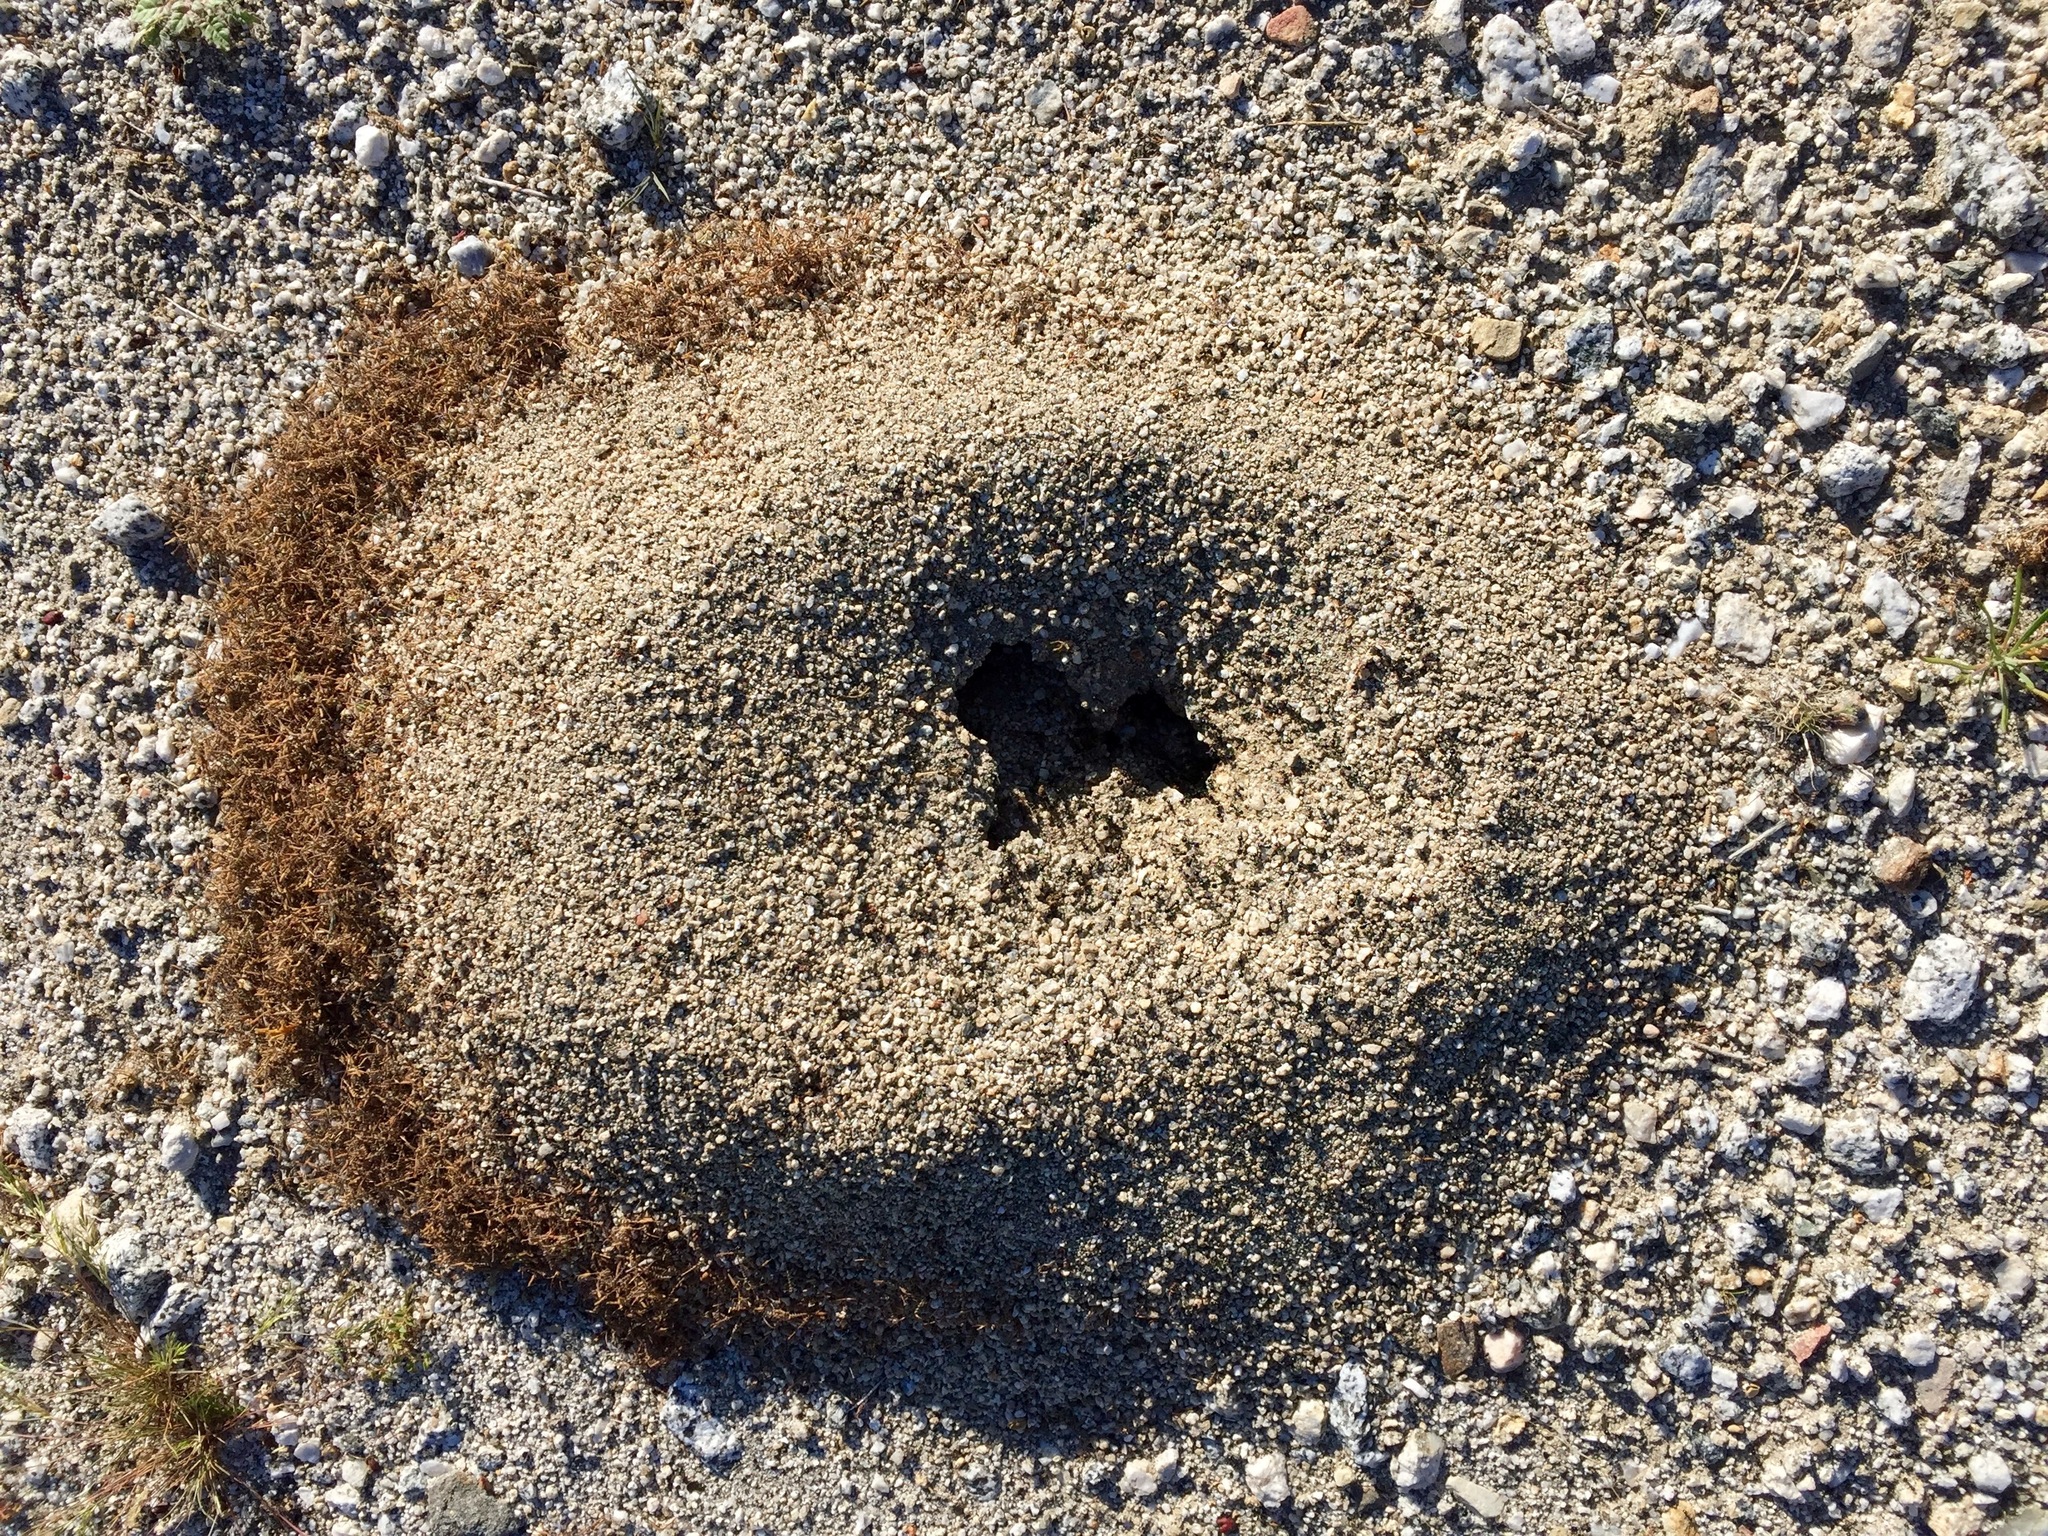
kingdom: Animalia
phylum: Arthropoda
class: Insecta
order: Hymenoptera
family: Formicidae
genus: Messor
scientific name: Messor pergandei
